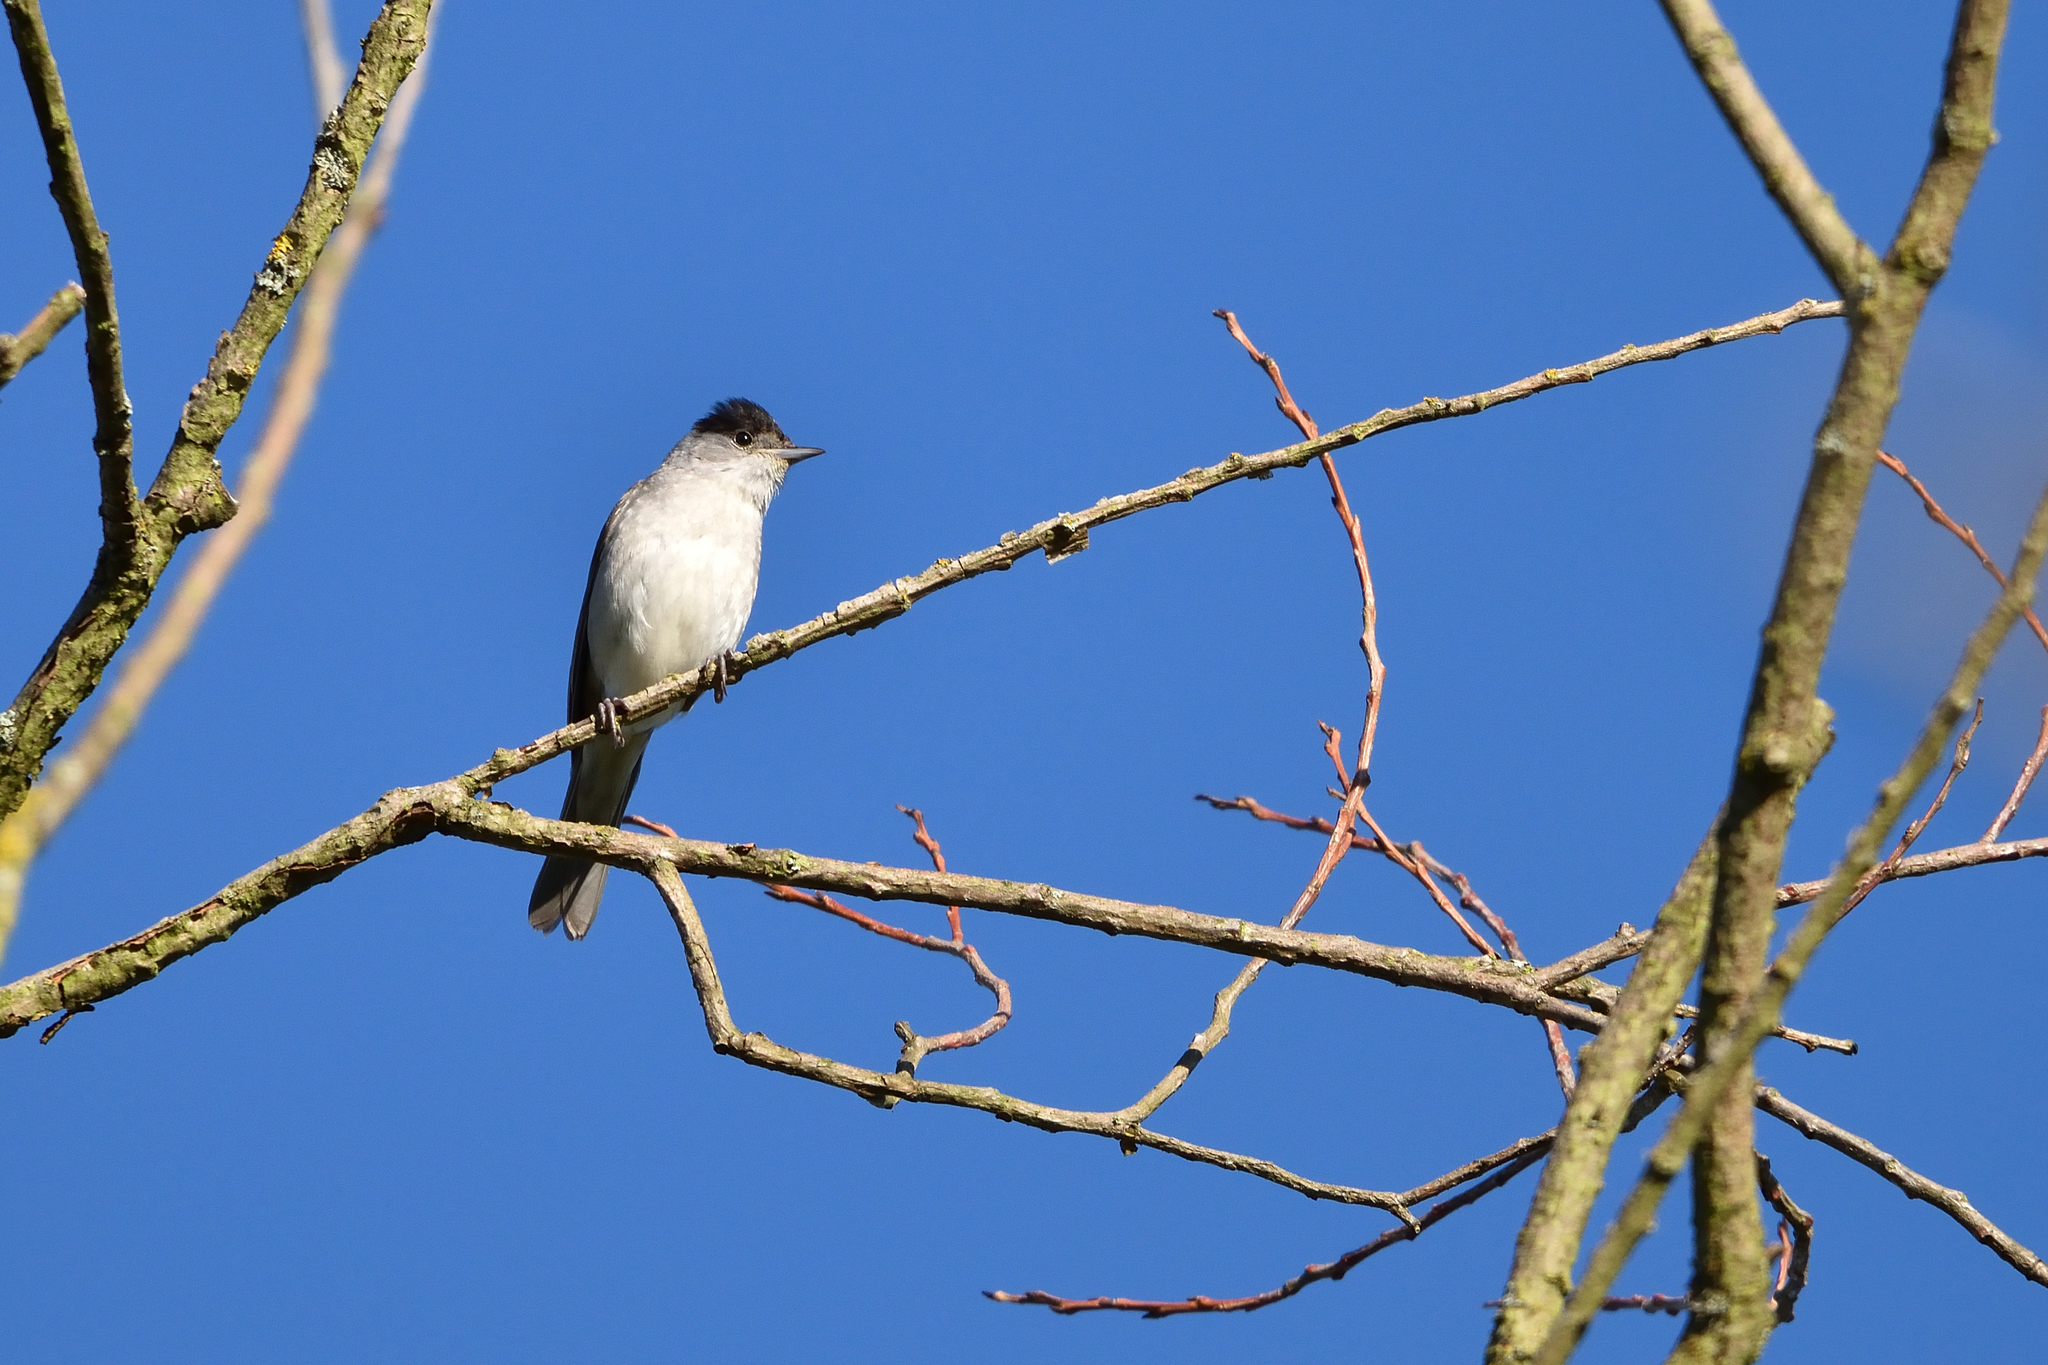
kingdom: Animalia
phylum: Chordata
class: Aves
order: Passeriformes
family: Sylviidae
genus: Sylvia
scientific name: Sylvia atricapilla
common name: Eurasian blackcap
